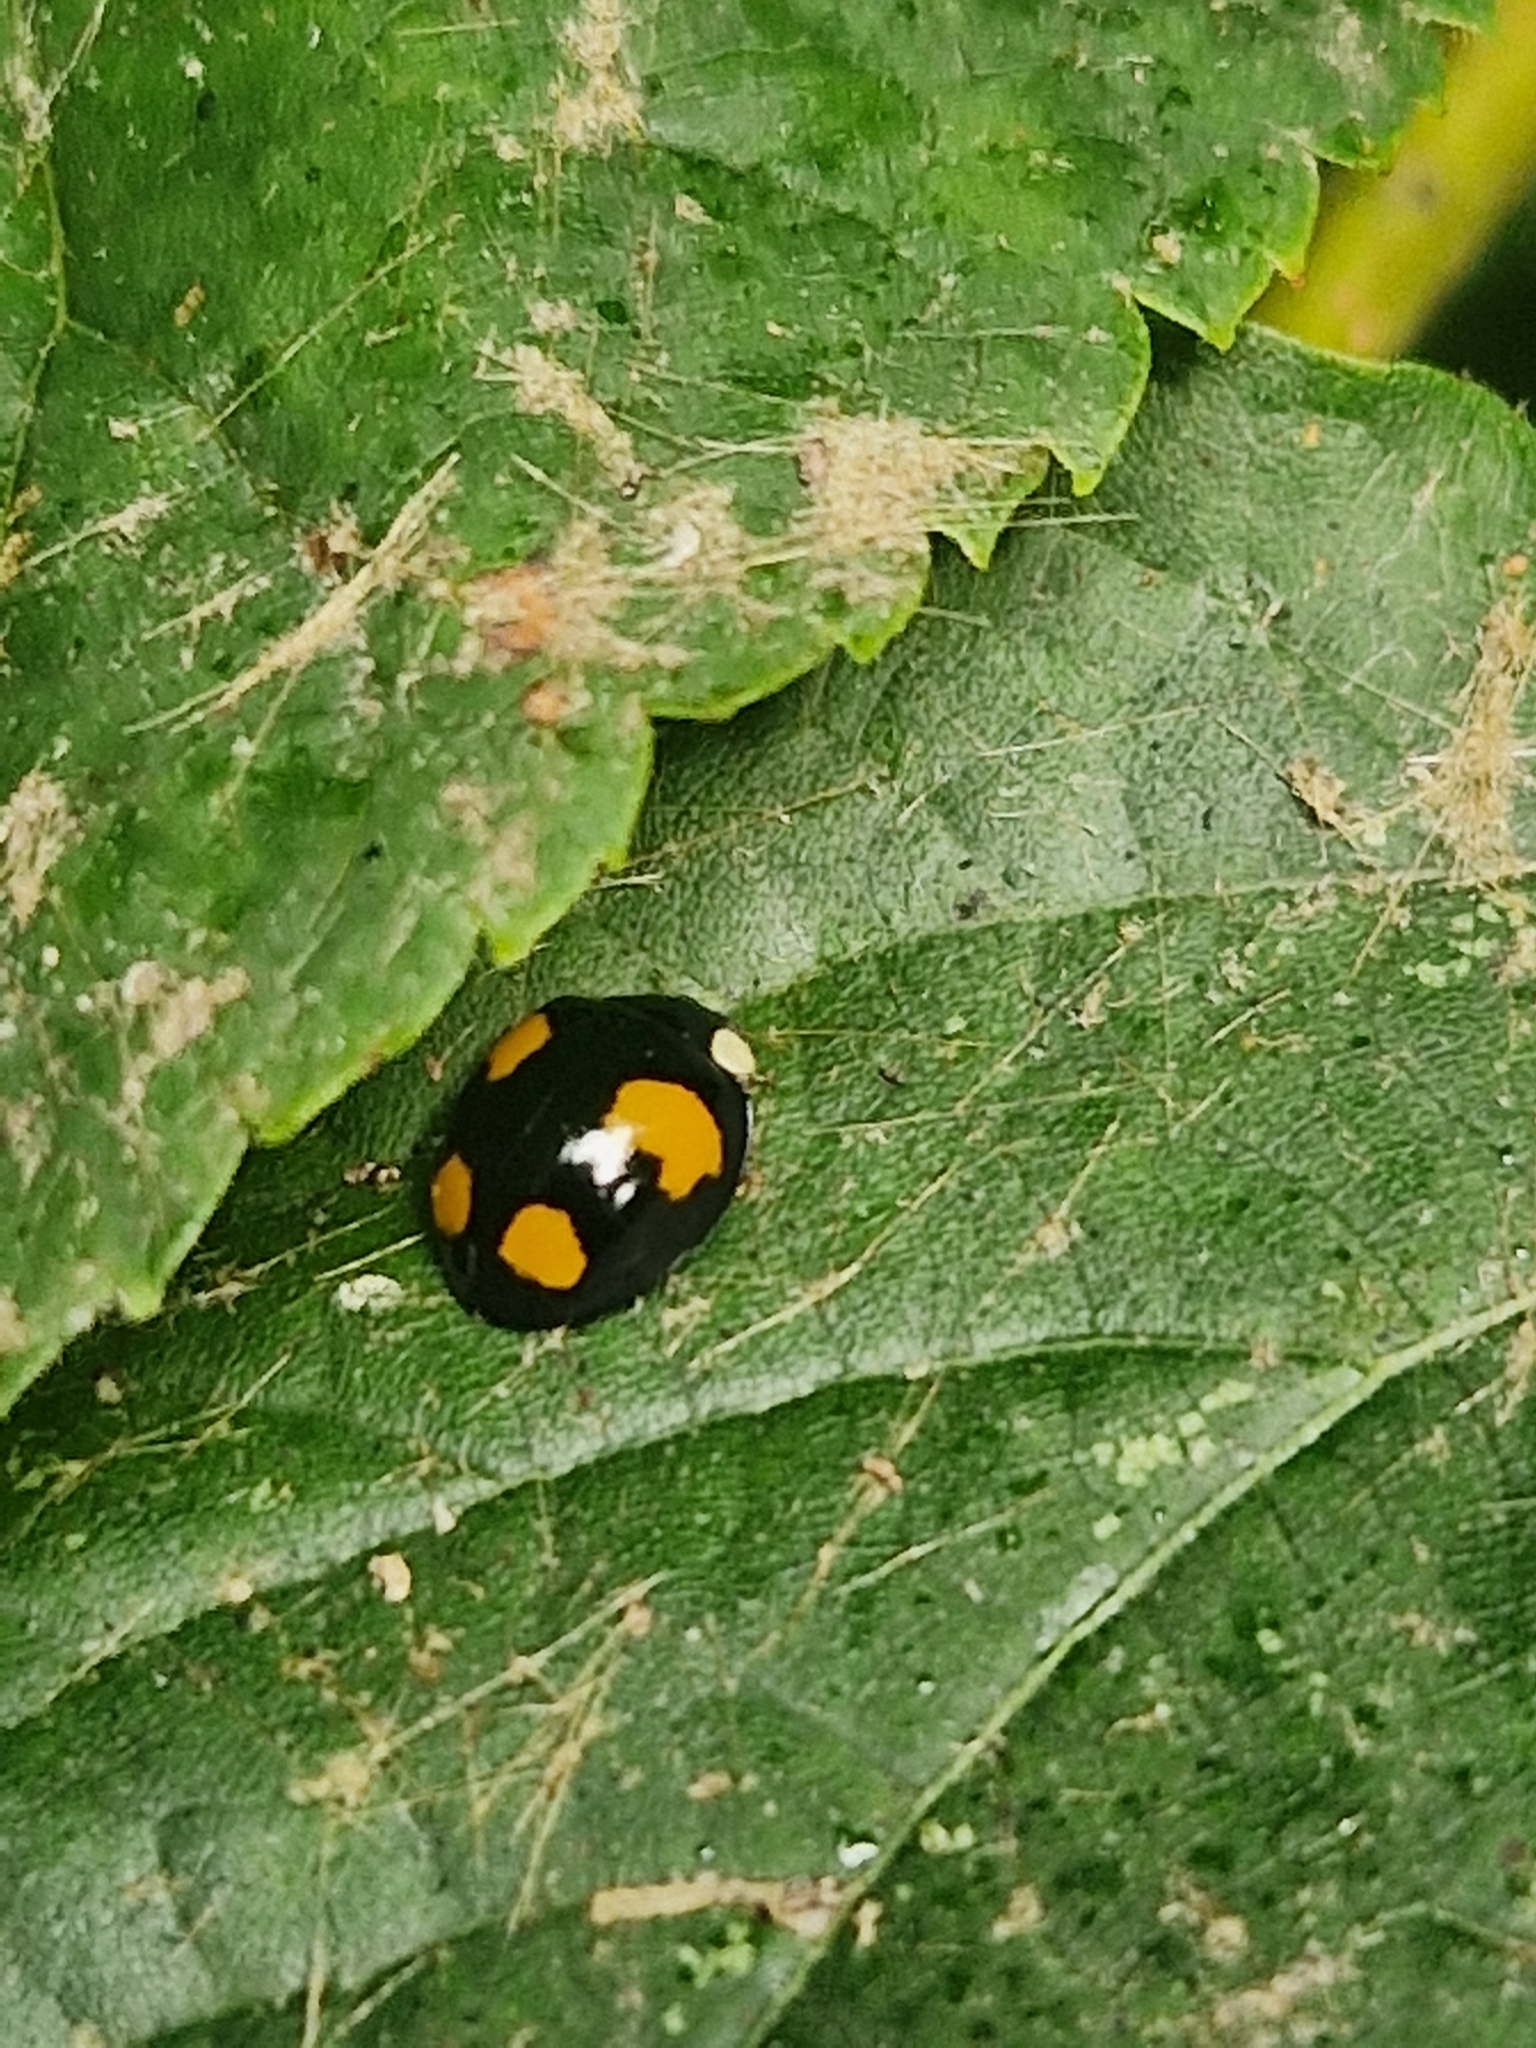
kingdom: Animalia
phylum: Arthropoda
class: Insecta
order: Coleoptera
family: Coccinellidae
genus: Harmonia
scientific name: Harmonia axyridis
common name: Harlequin ladybird
